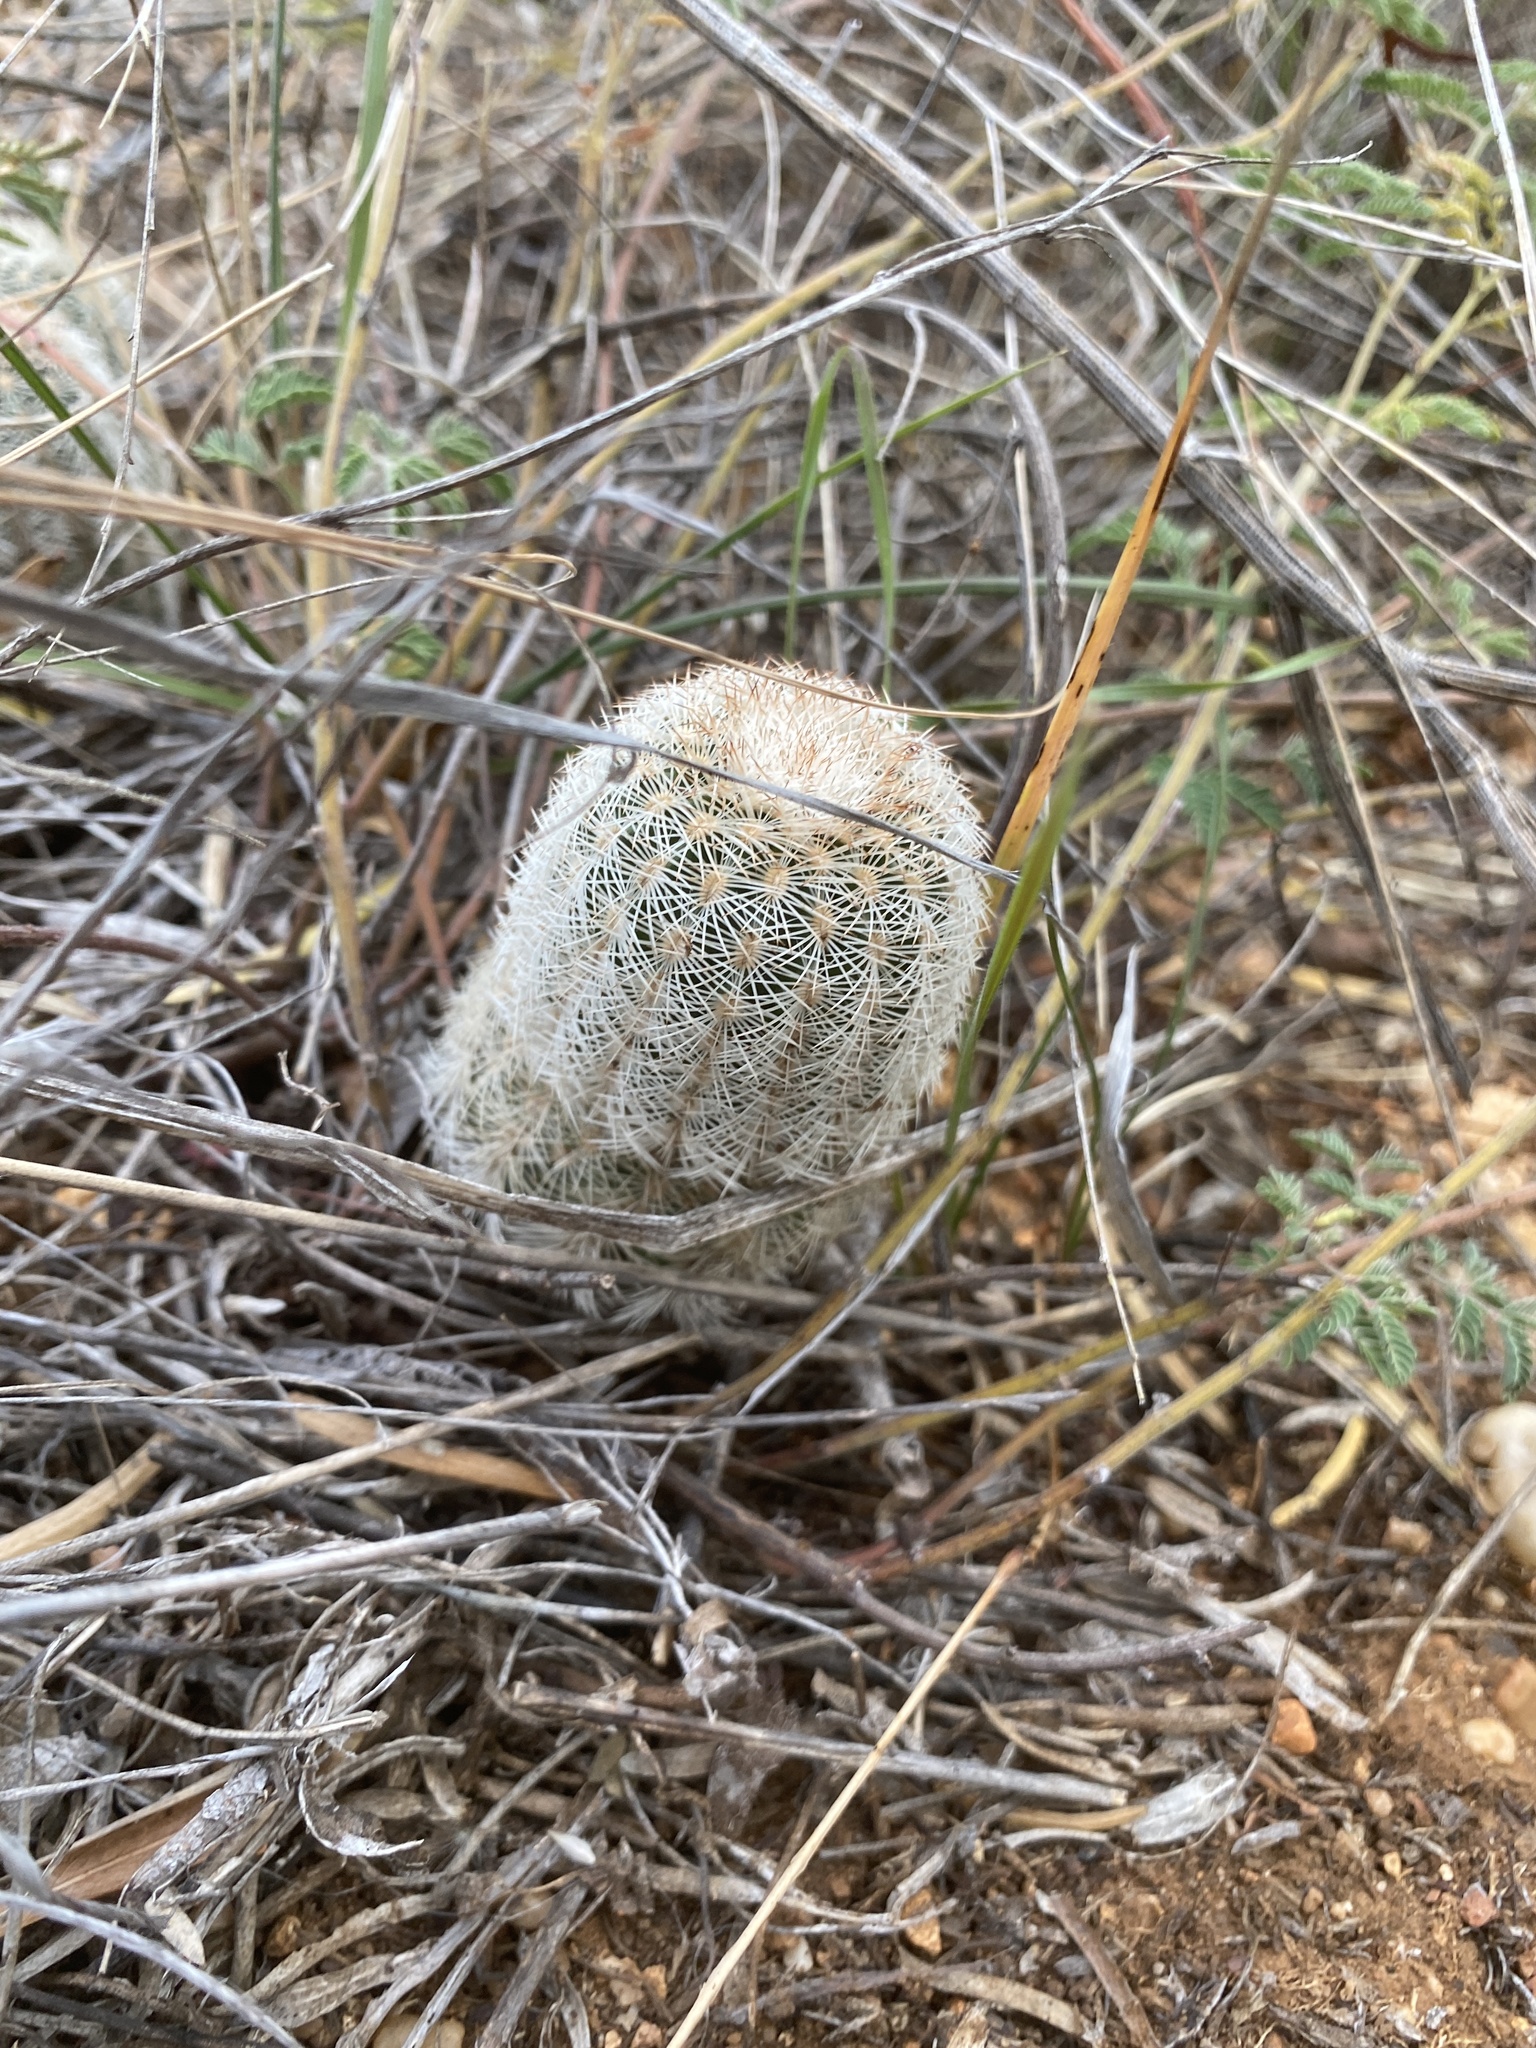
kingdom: Plantae
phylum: Tracheophyta
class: Magnoliopsida
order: Caryophyllales
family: Cactaceae
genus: Echinocereus
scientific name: Echinocereus reichenbachii
